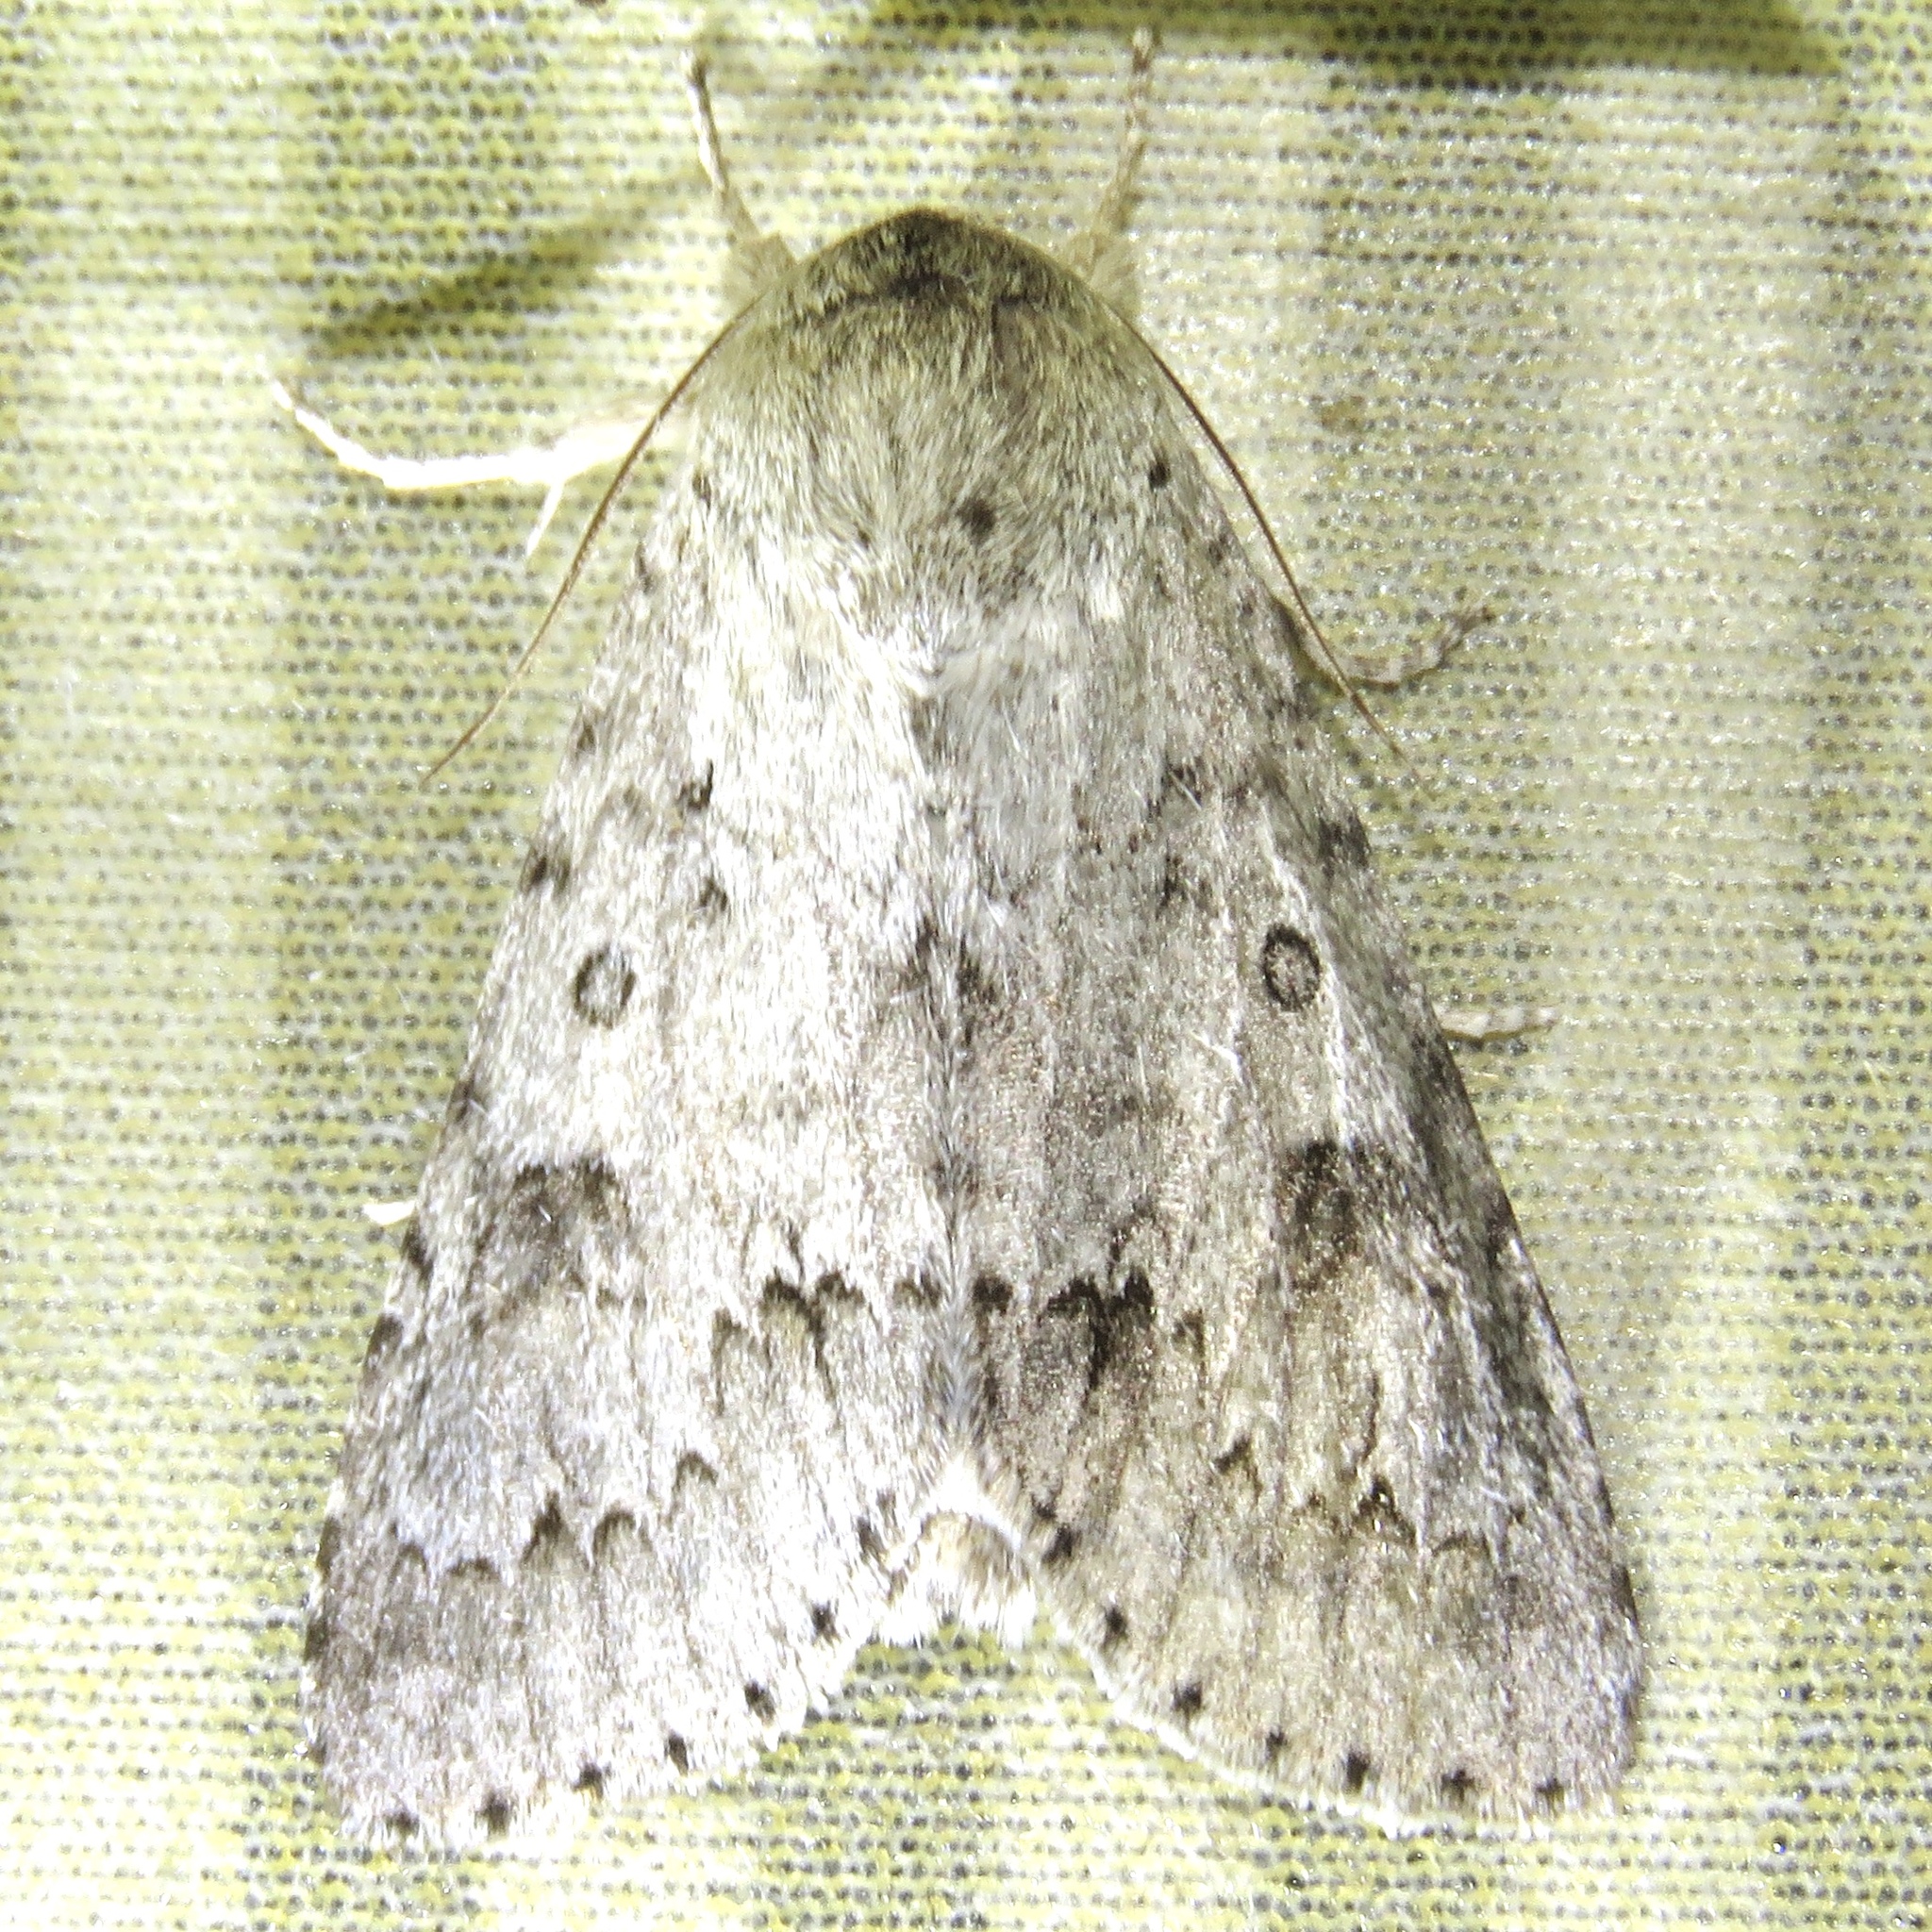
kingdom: Animalia
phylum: Arthropoda
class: Insecta
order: Lepidoptera
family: Noctuidae
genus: Acronicta
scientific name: Acronicta insita
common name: Large gray dagger
